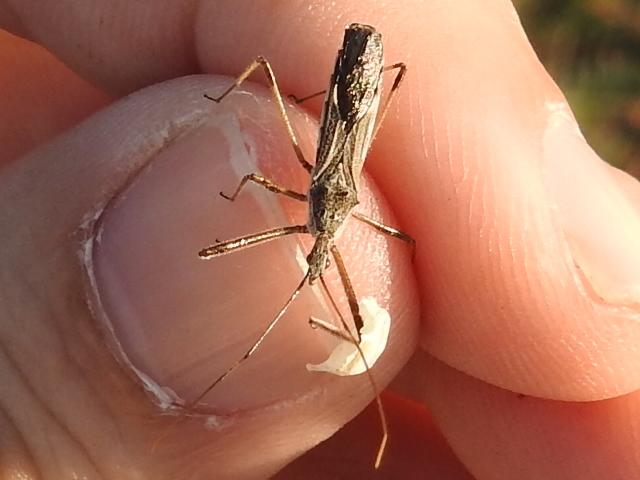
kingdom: Animalia
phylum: Arthropoda
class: Insecta
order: Hemiptera
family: Reduviidae
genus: Zelus
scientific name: Zelus tetracanthus
